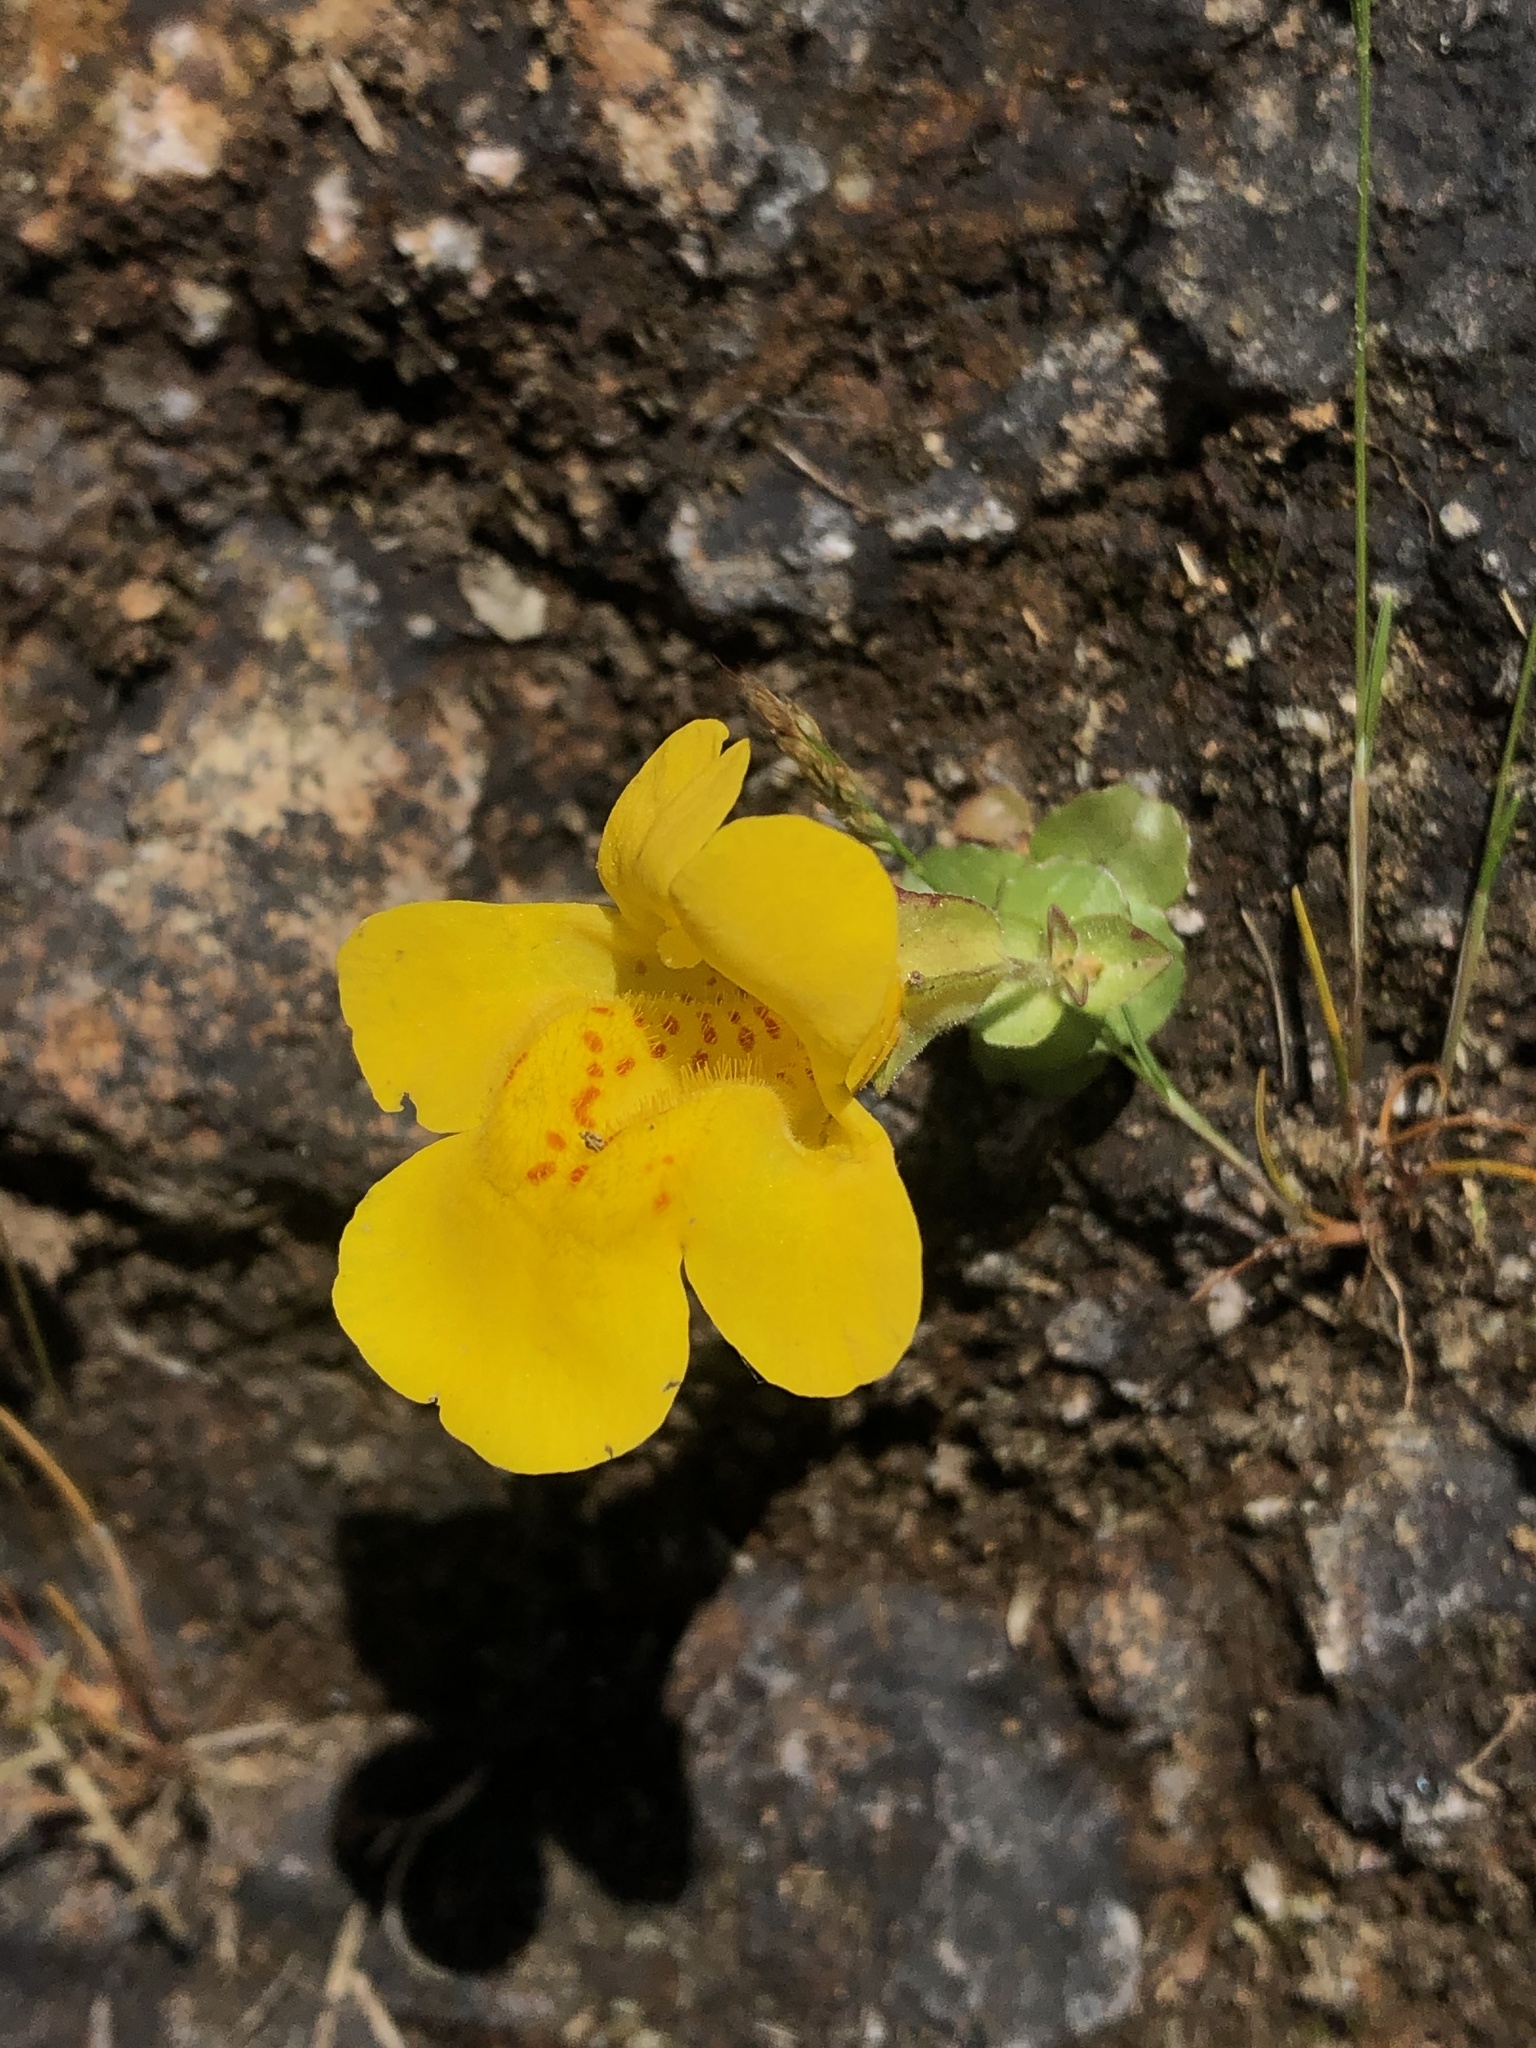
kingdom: Plantae
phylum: Tracheophyta
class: Magnoliopsida
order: Lamiales
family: Phrymaceae
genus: Erythranthe
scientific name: Erythranthe grandis
